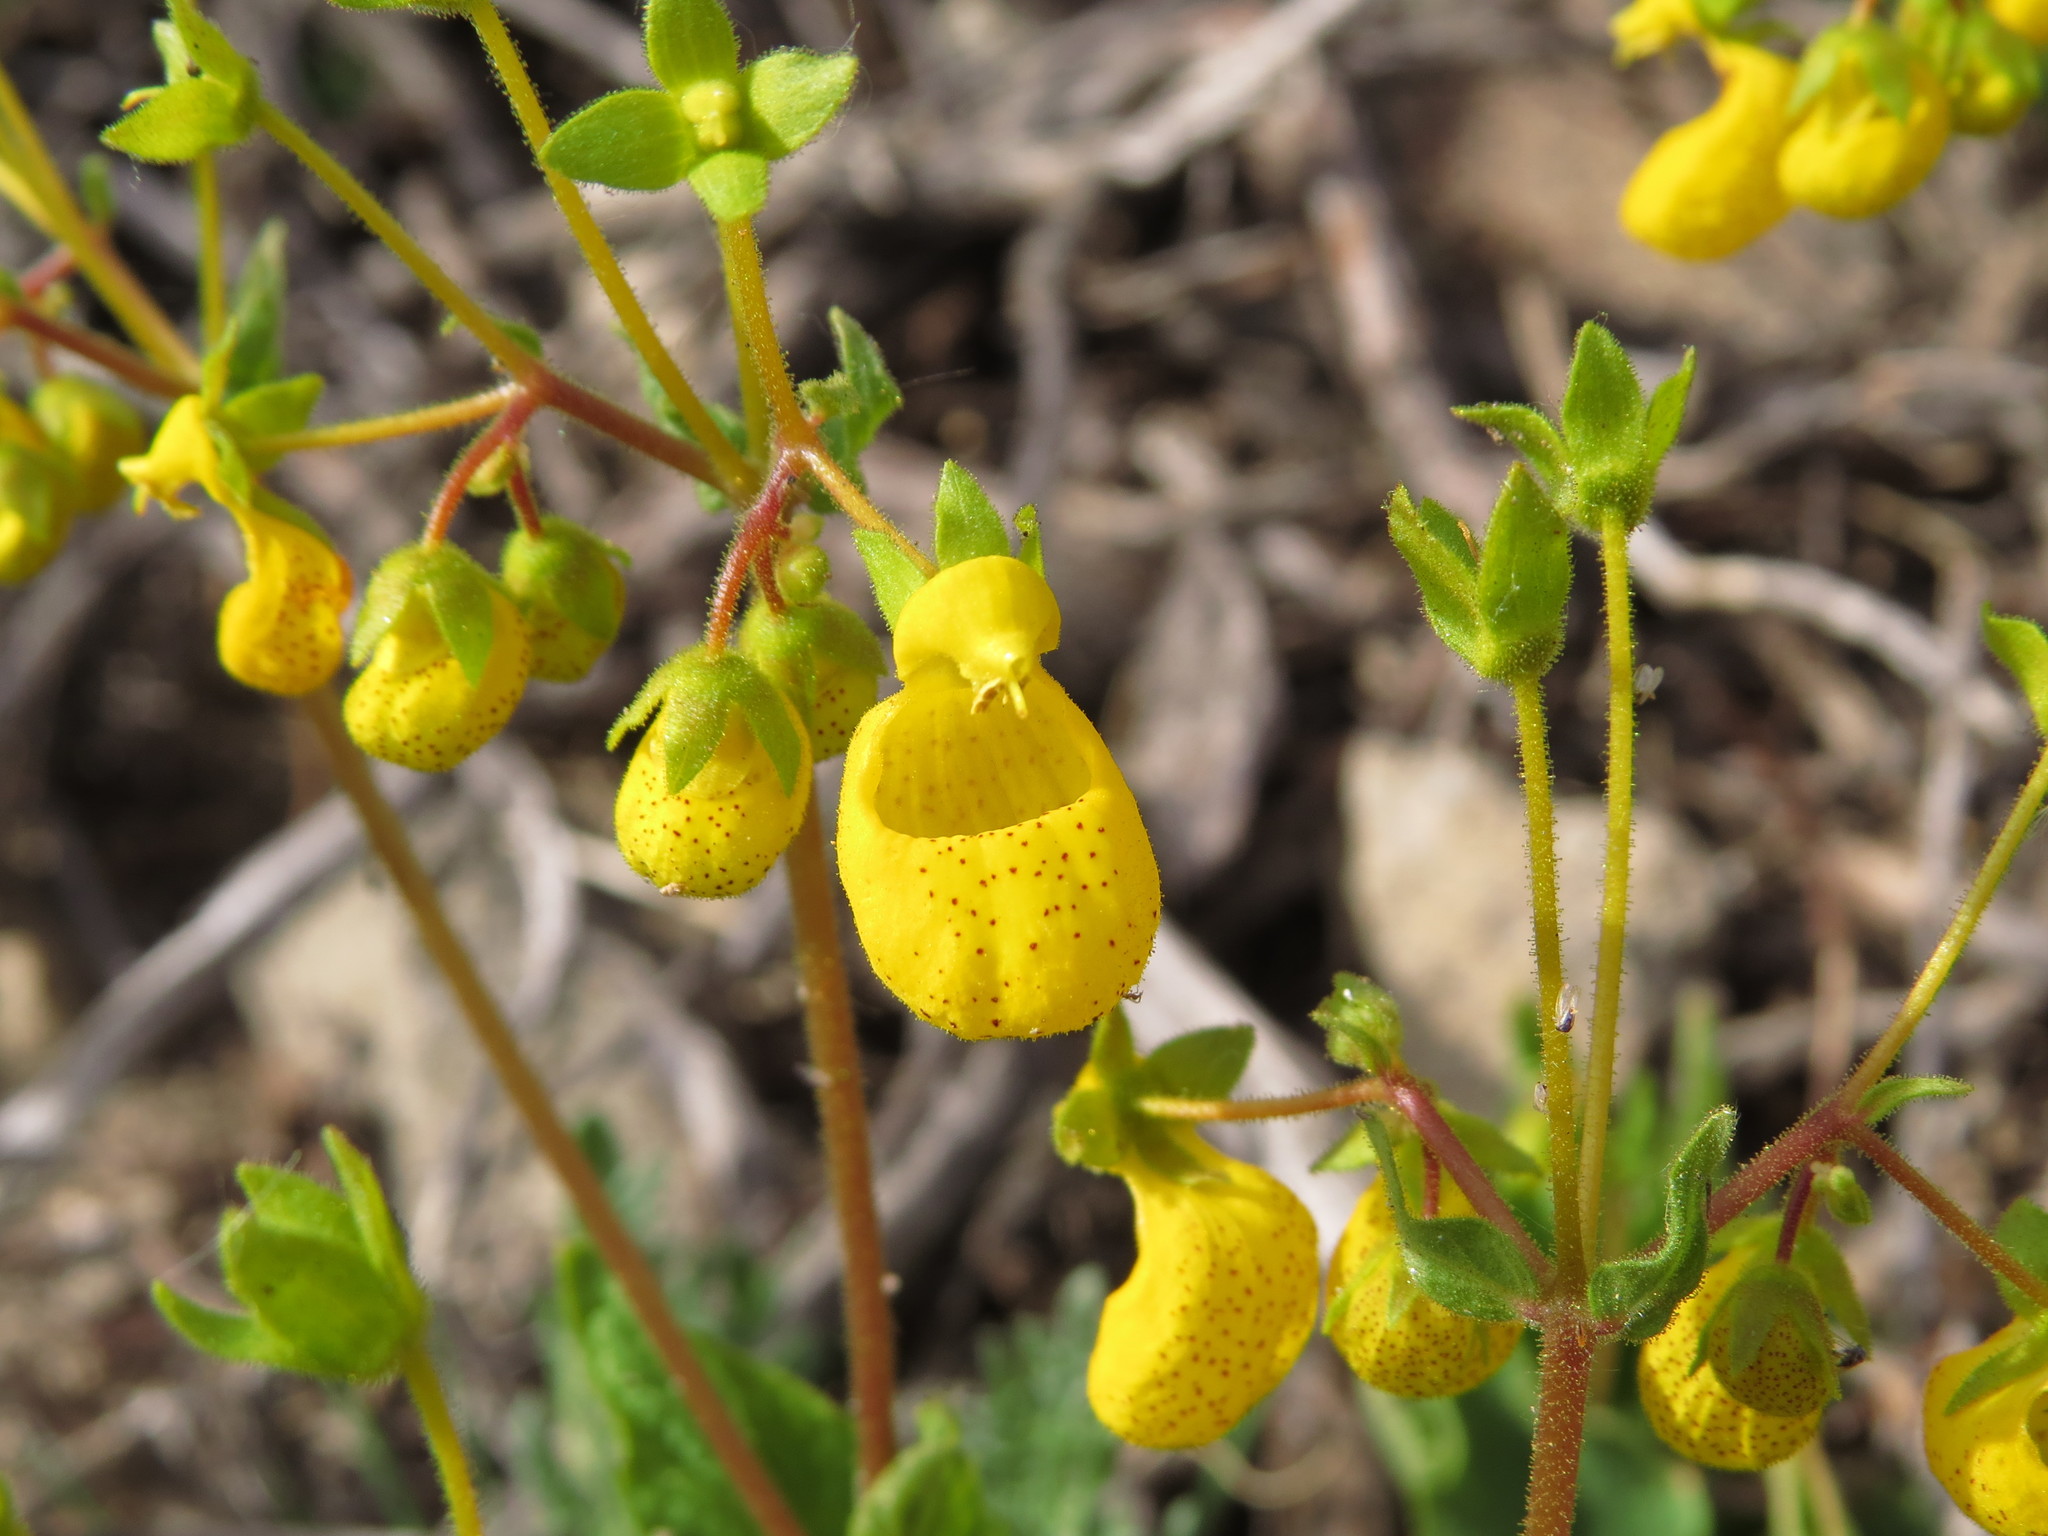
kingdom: Plantae
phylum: Tracheophyta
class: Magnoliopsida
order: Lamiales
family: Calceolariaceae
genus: Calceolaria
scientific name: Calceolaria corymbosa
